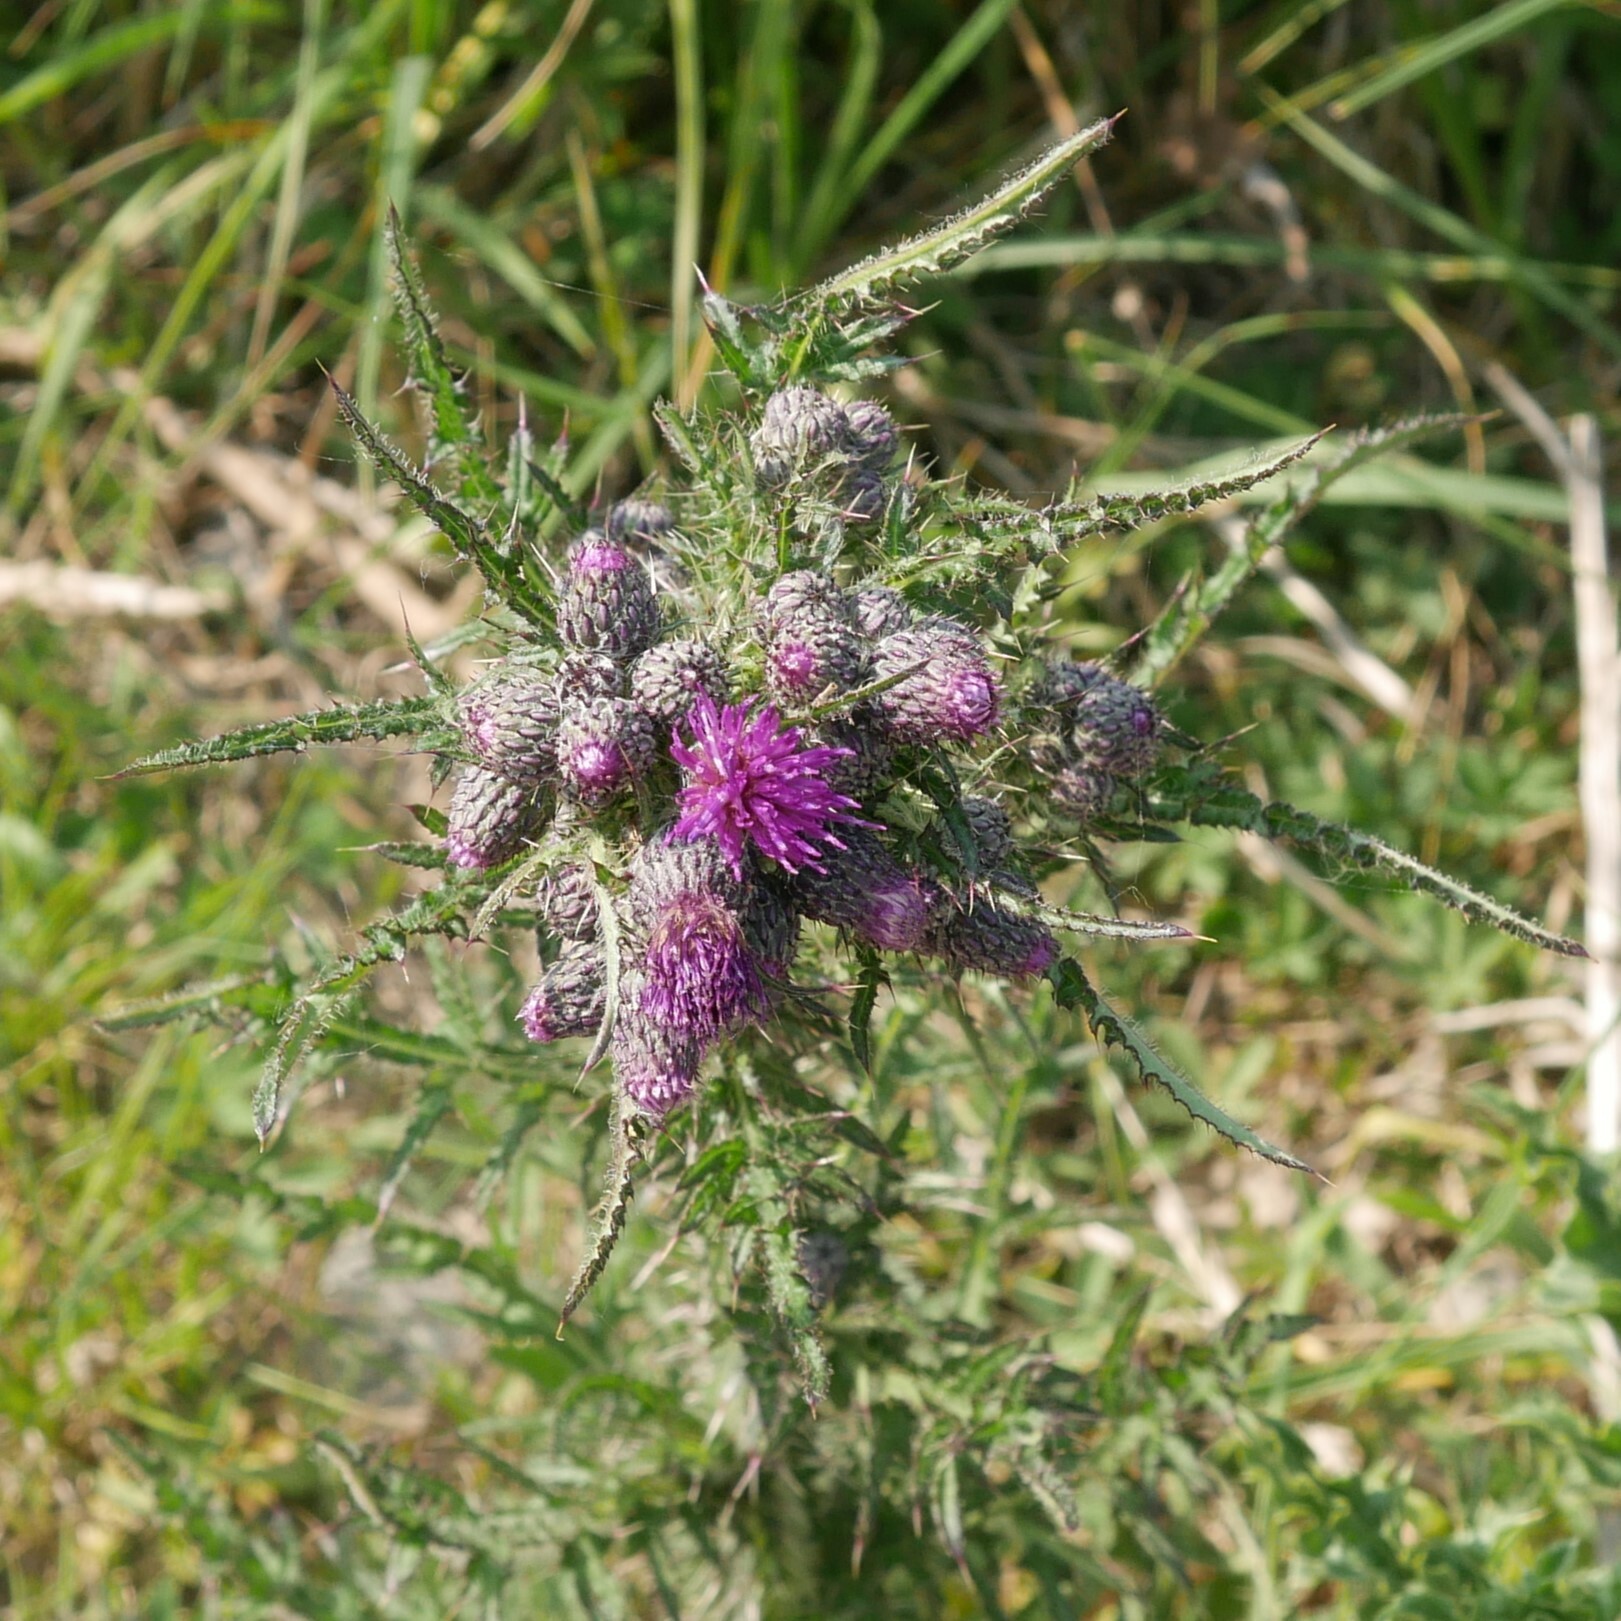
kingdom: Plantae
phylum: Tracheophyta
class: Magnoliopsida
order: Asterales
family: Asteraceae
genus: Cirsium
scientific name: Cirsium palustre
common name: Marsh thistle
